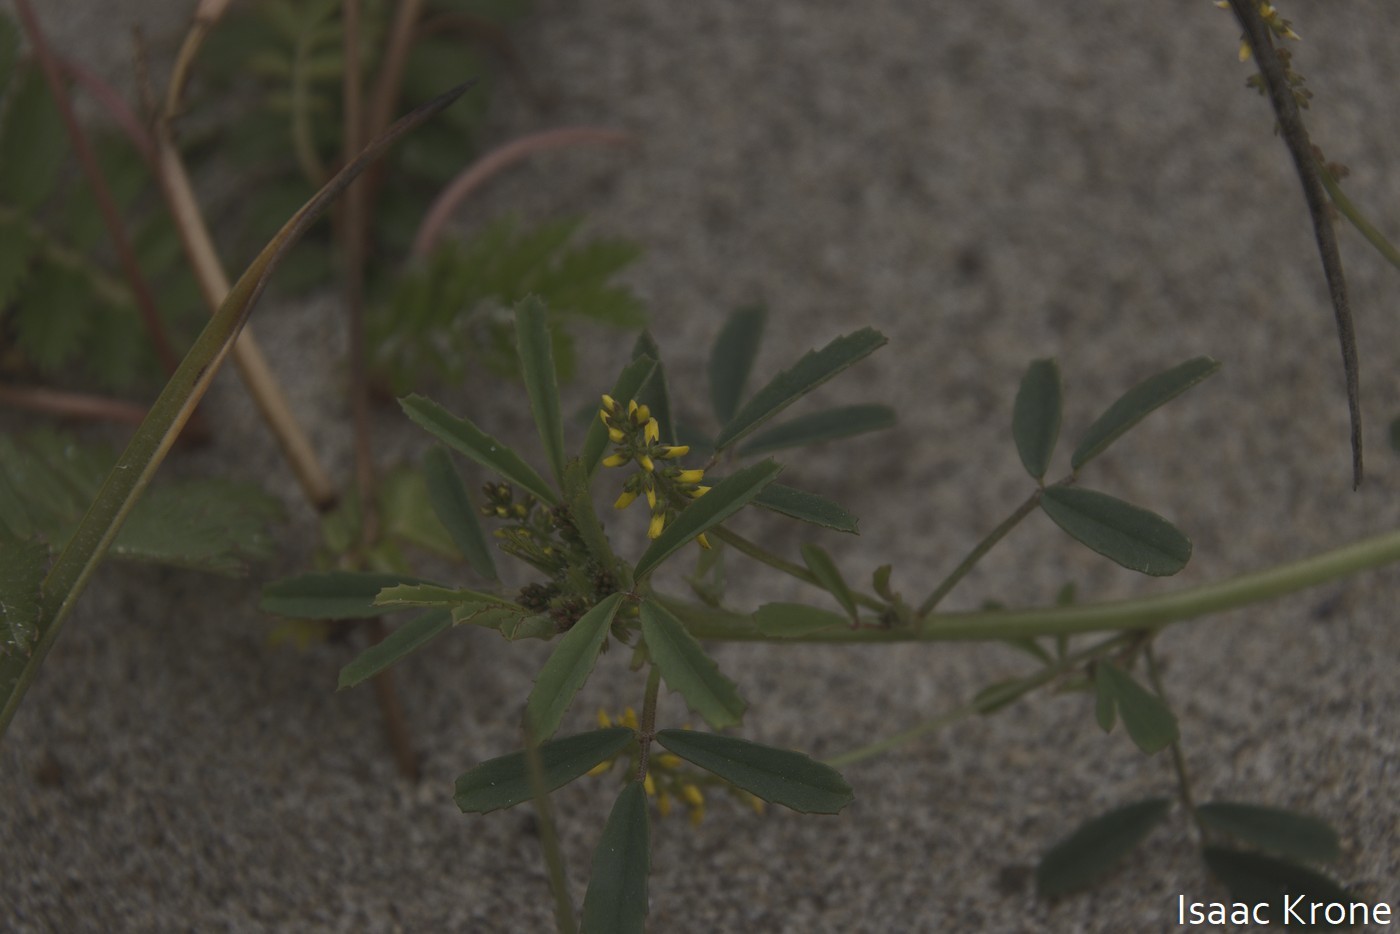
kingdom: Plantae
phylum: Tracheophyta
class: Magnoliopsida
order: Fabales
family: Fabaceae
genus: Melilotus
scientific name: Melilotus indicus
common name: Small melilot
